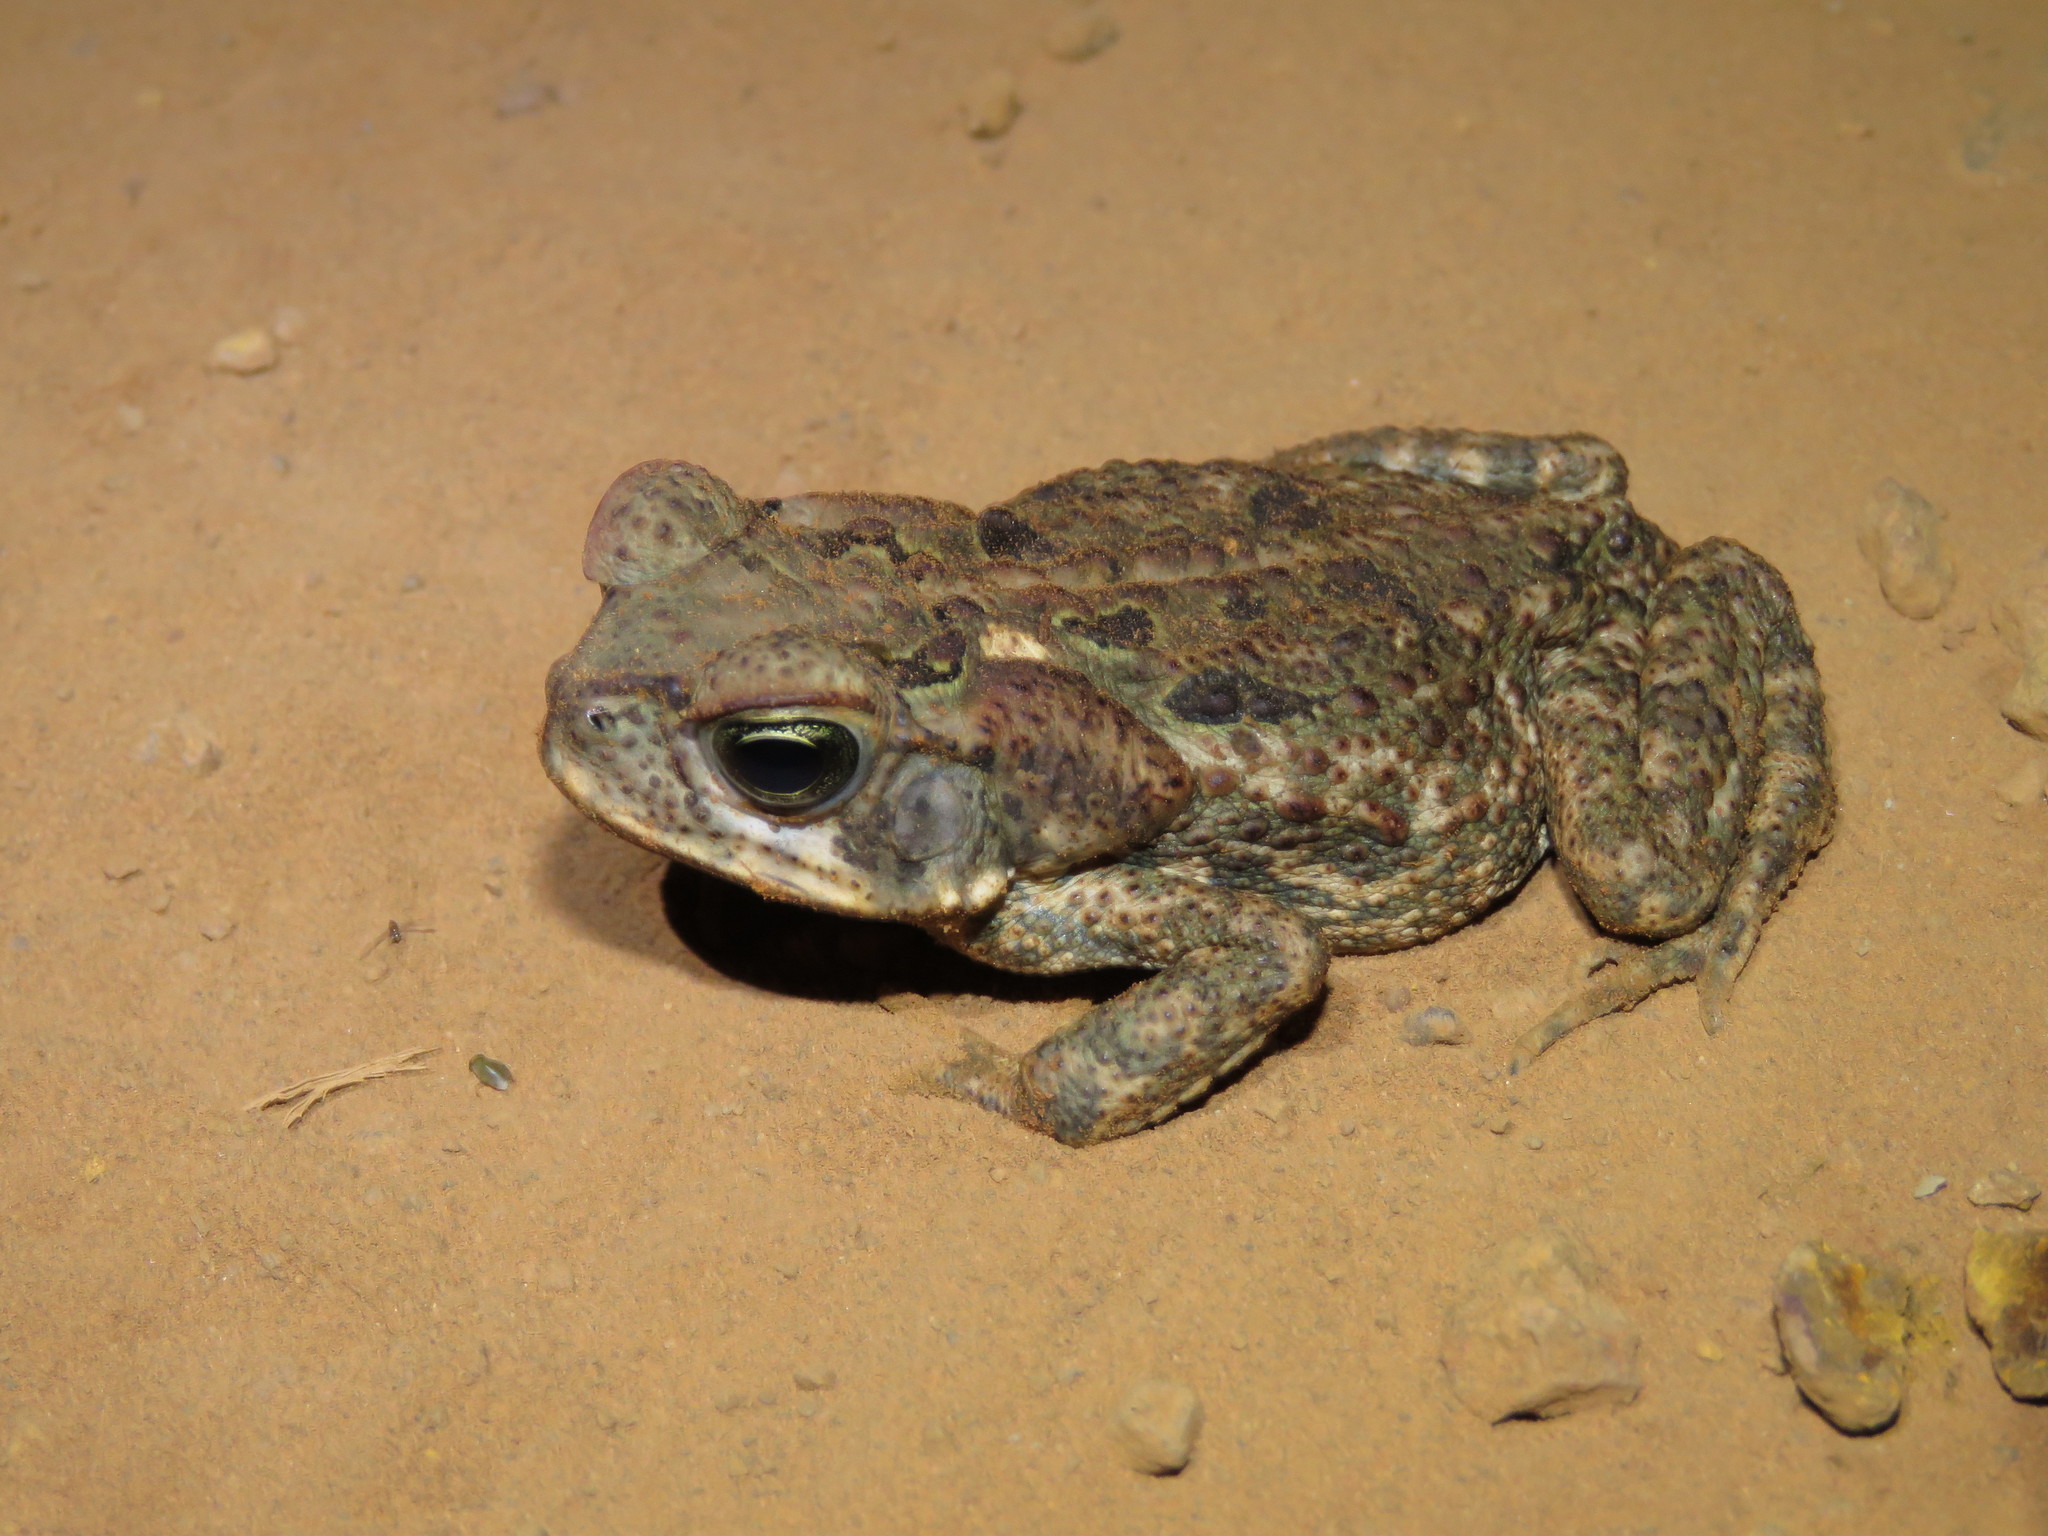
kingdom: Animalia
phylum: Chordata
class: Amphibia
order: Anura
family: Bufonidae
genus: Rhinella
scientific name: Rhinella diptycha
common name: Cope's toad
